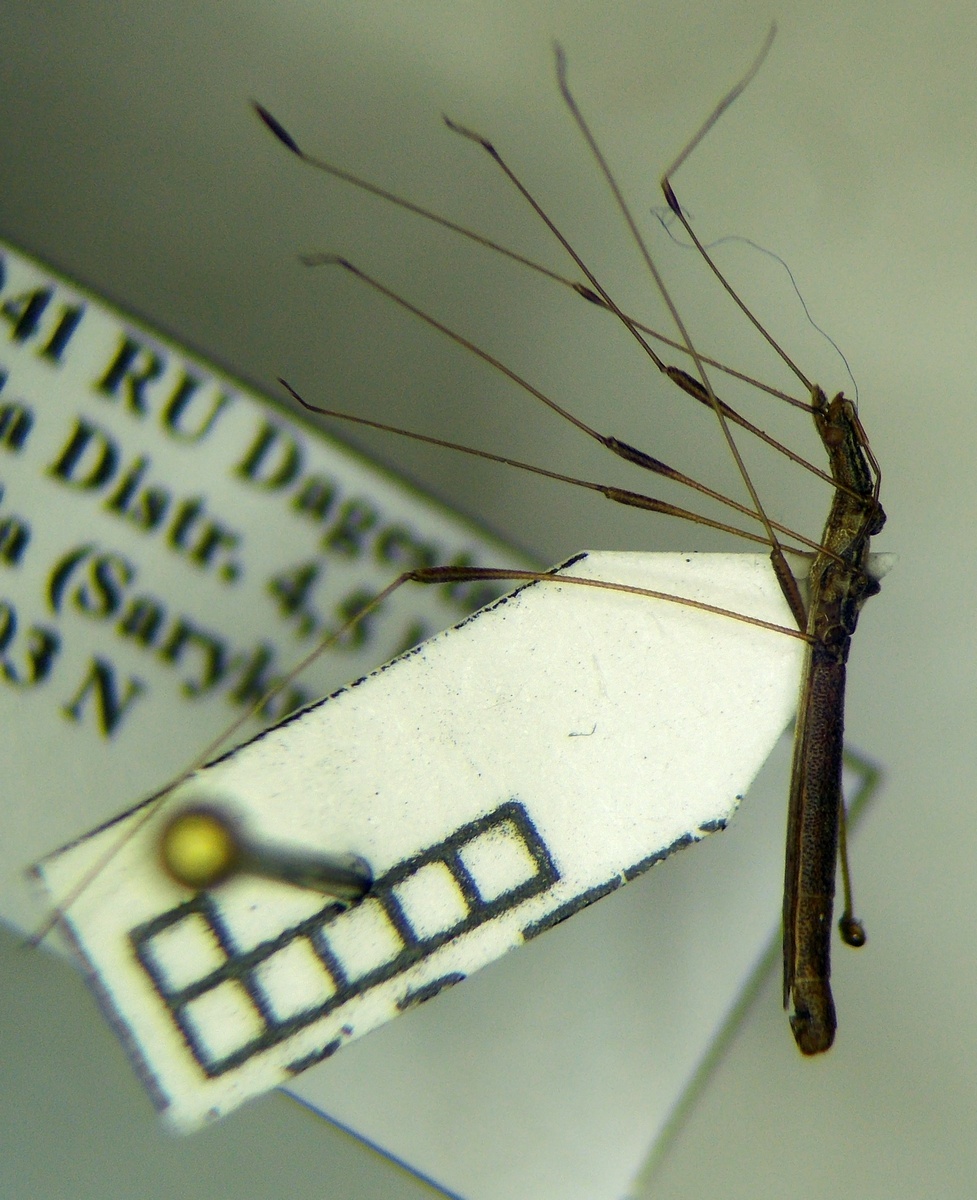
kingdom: Animalia
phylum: Arthropoda
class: Insecta
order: Hemiptera
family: Berytidae
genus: Neides
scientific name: Neides tipularius
